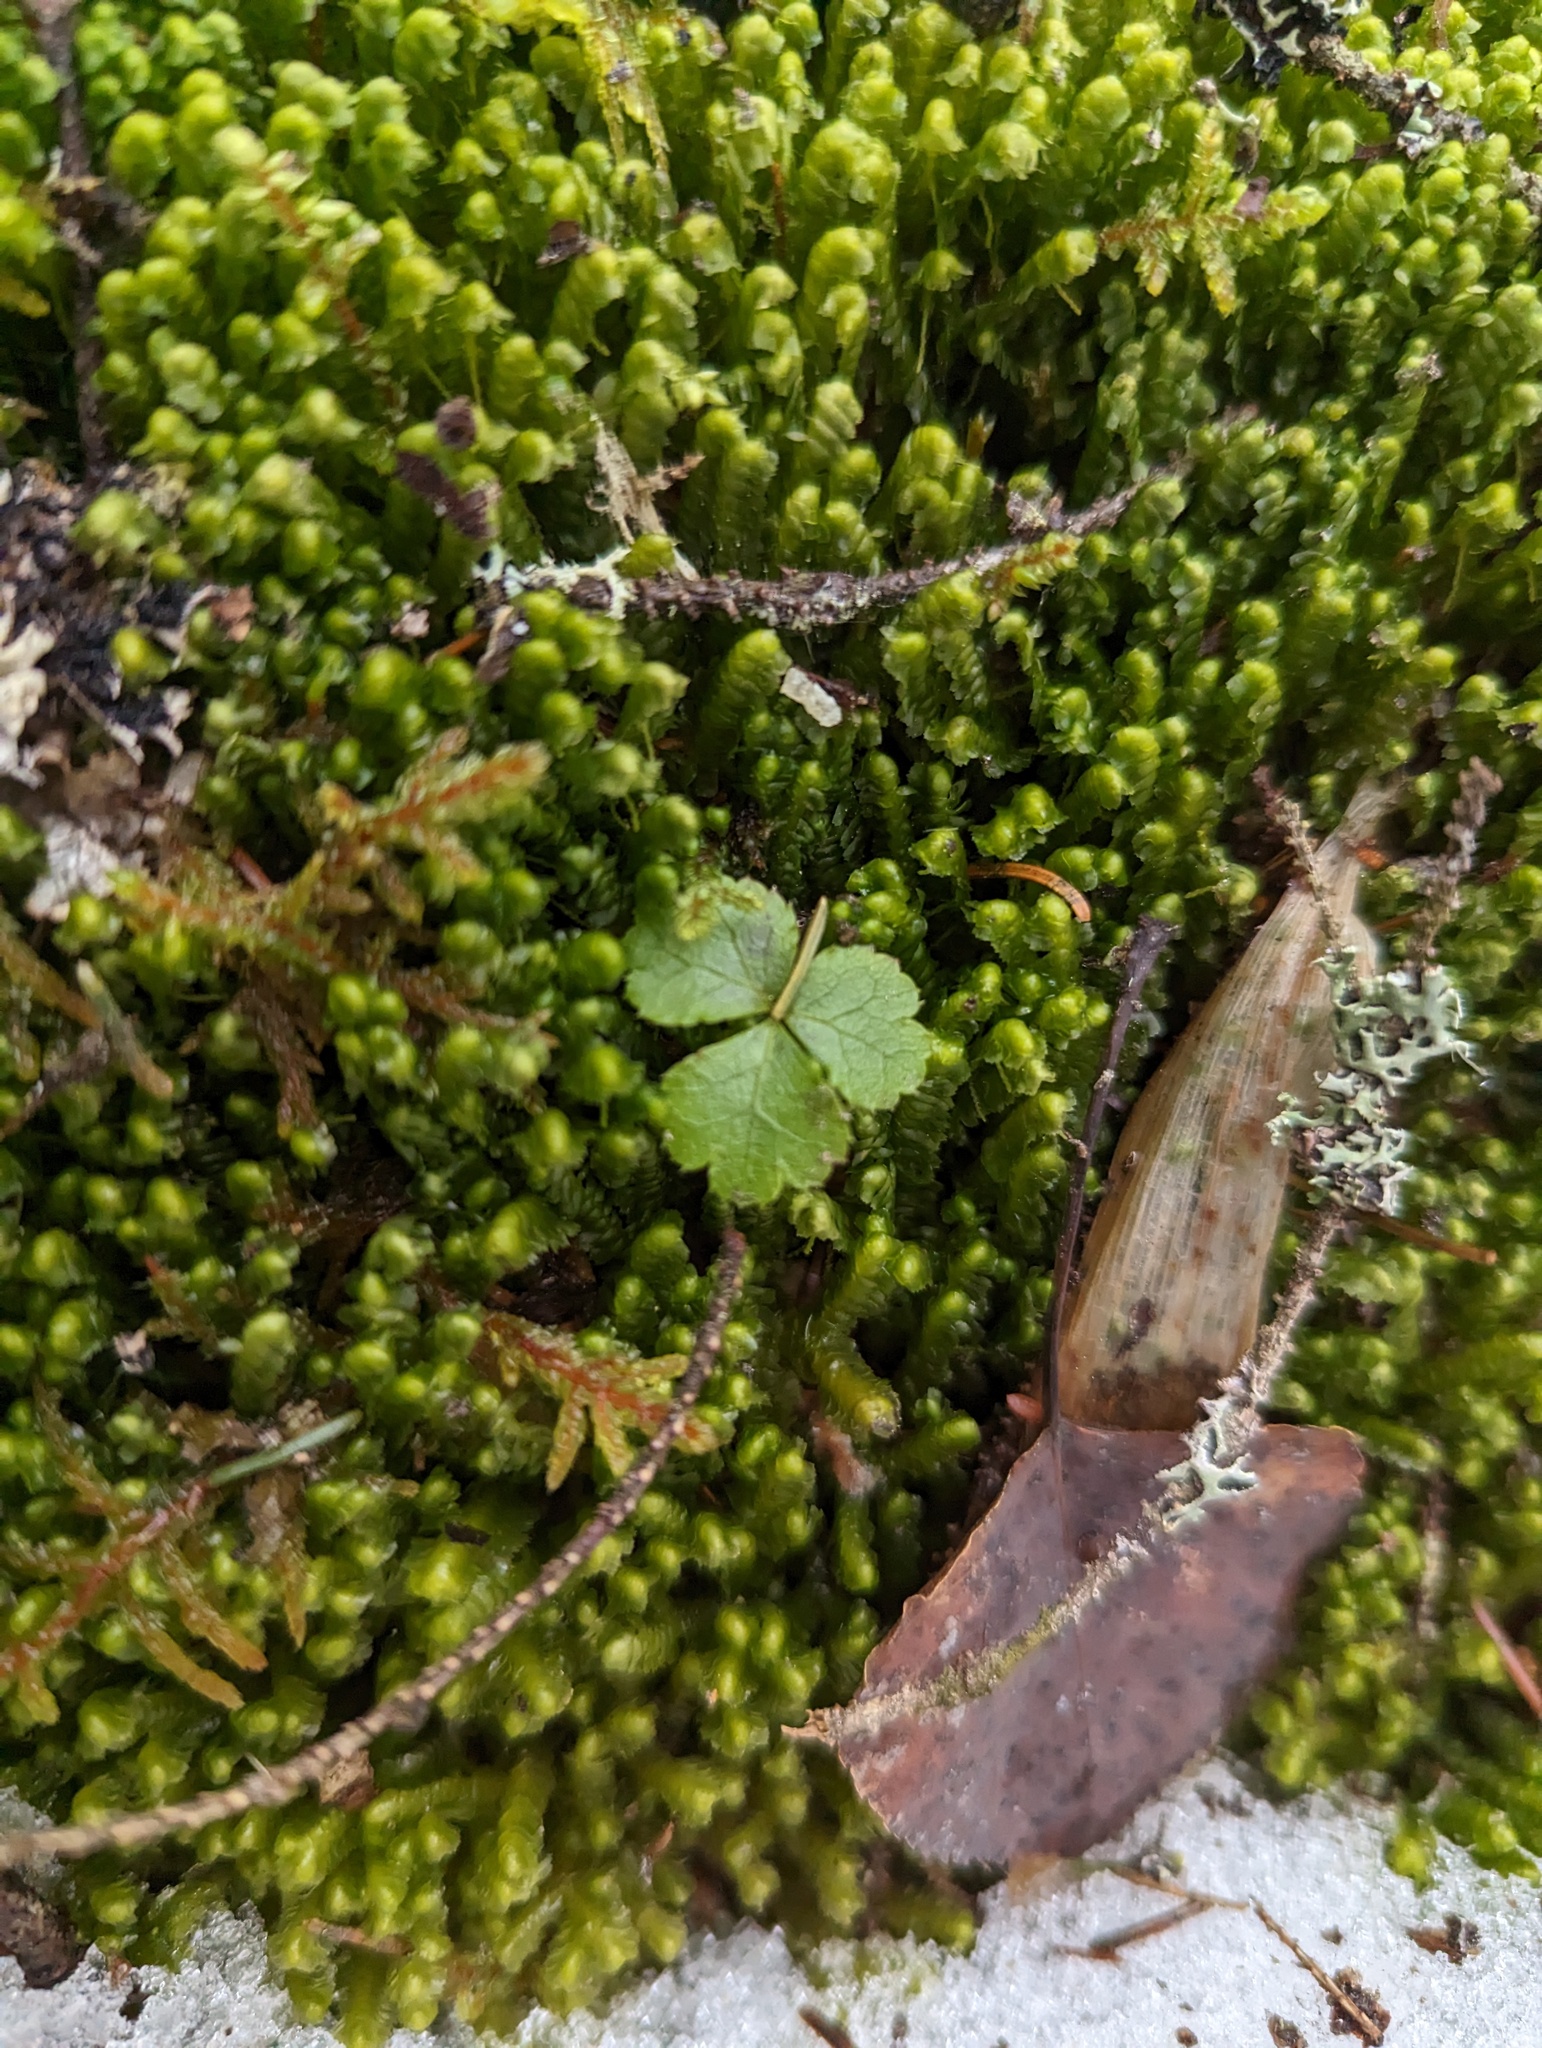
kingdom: Plantae
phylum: Tracheophyta
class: Magnoliopsida
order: Ranunculales
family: Ranunculaceae
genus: Coptis
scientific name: Coptis trifolia
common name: Canker-root
